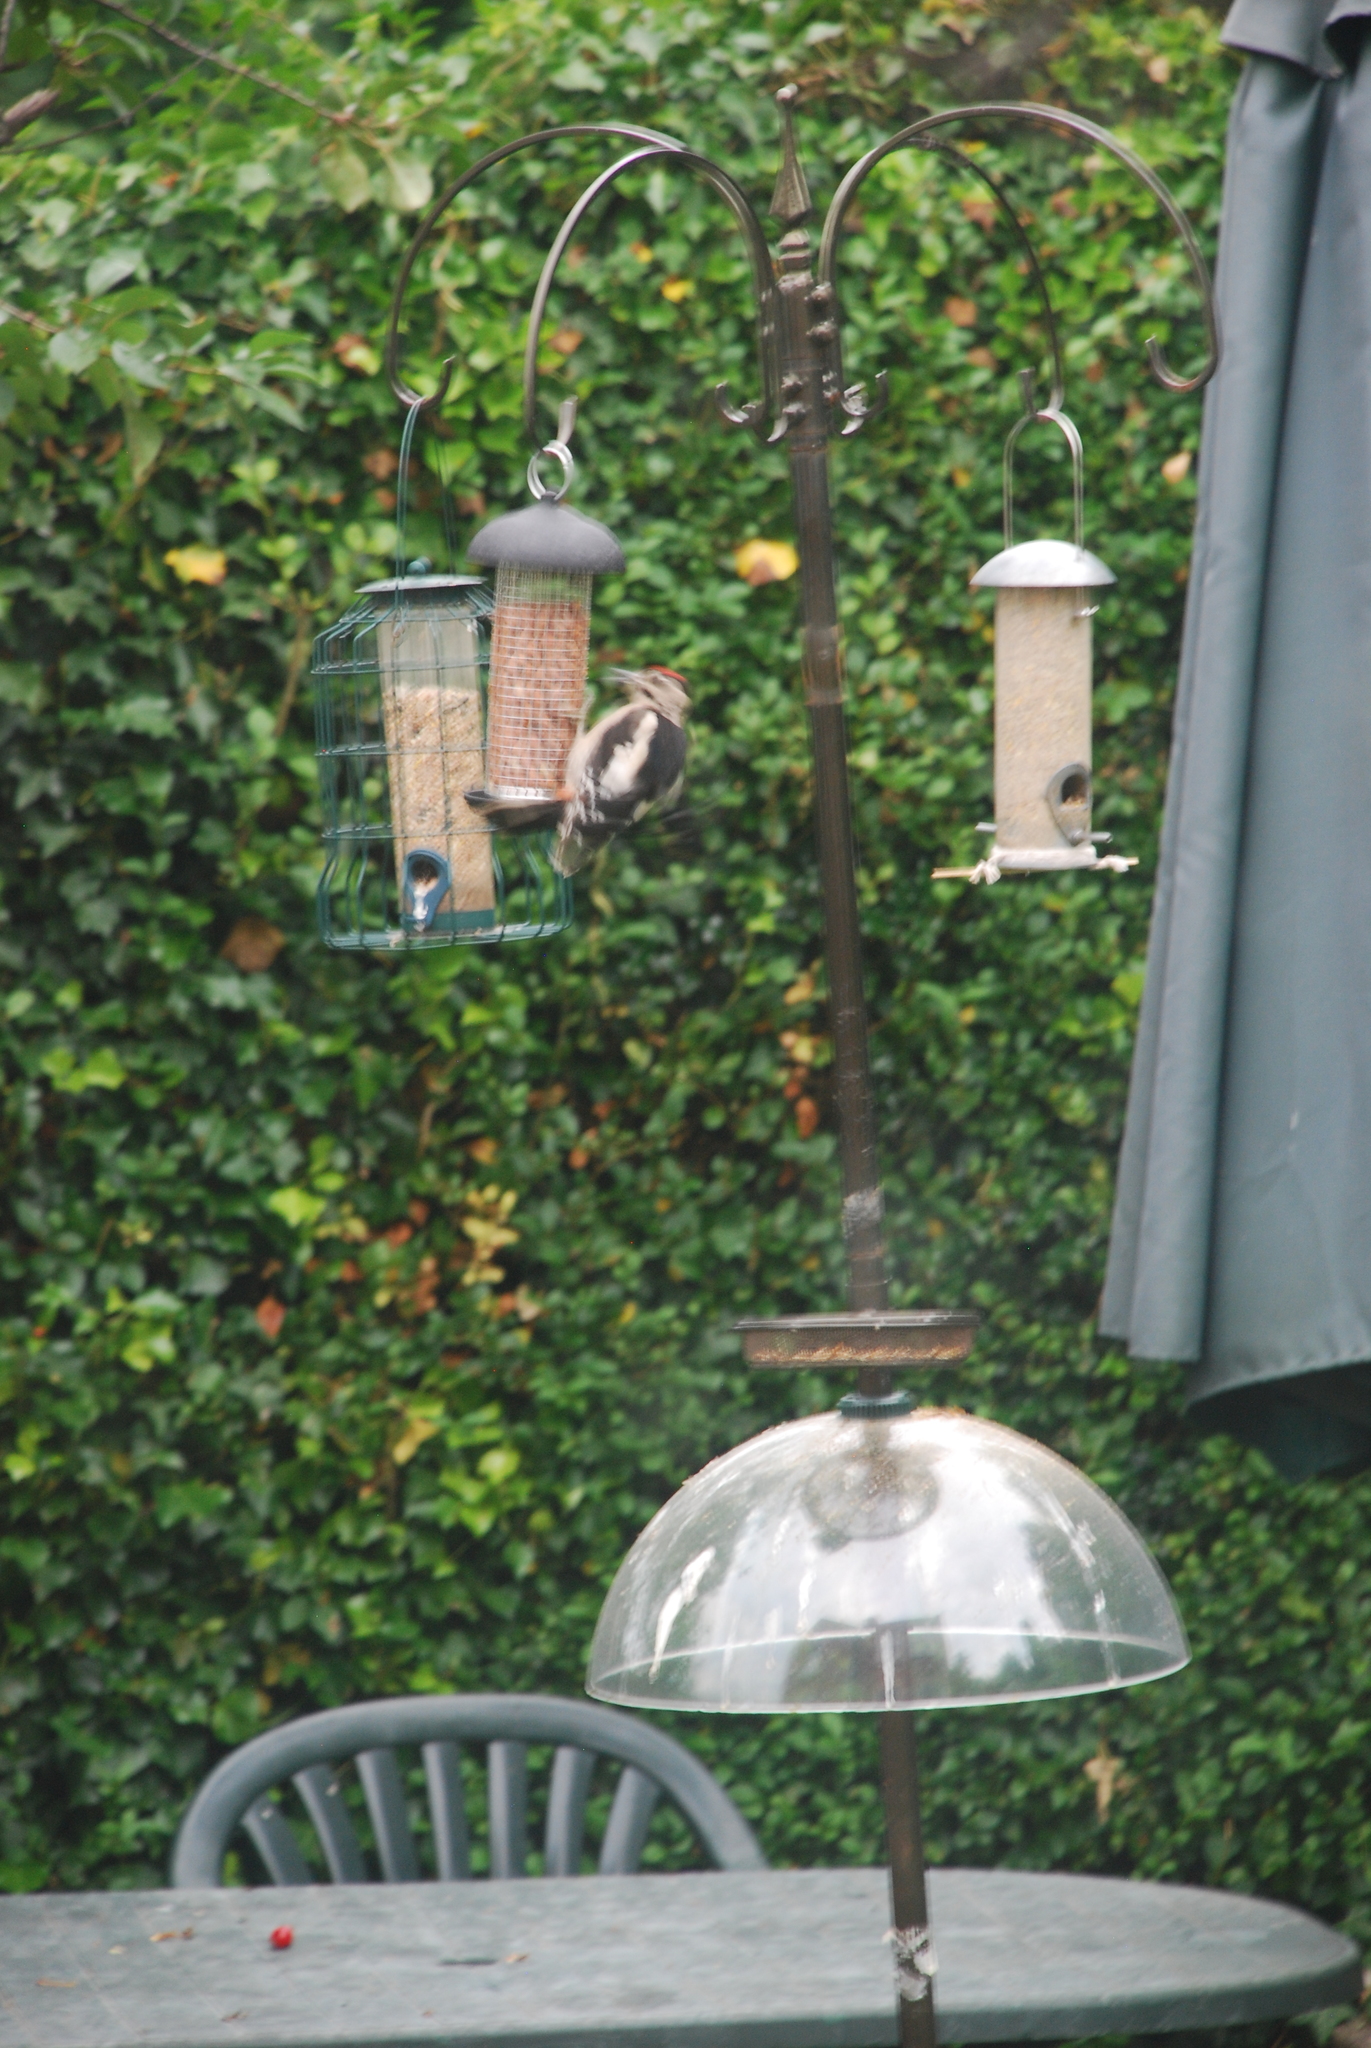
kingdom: Animalia
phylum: Chordata
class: Aves
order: Piciformes
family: Picidae
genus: Dendrocopos
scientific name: Dendrocopos major
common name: Great spotted woodpecker
